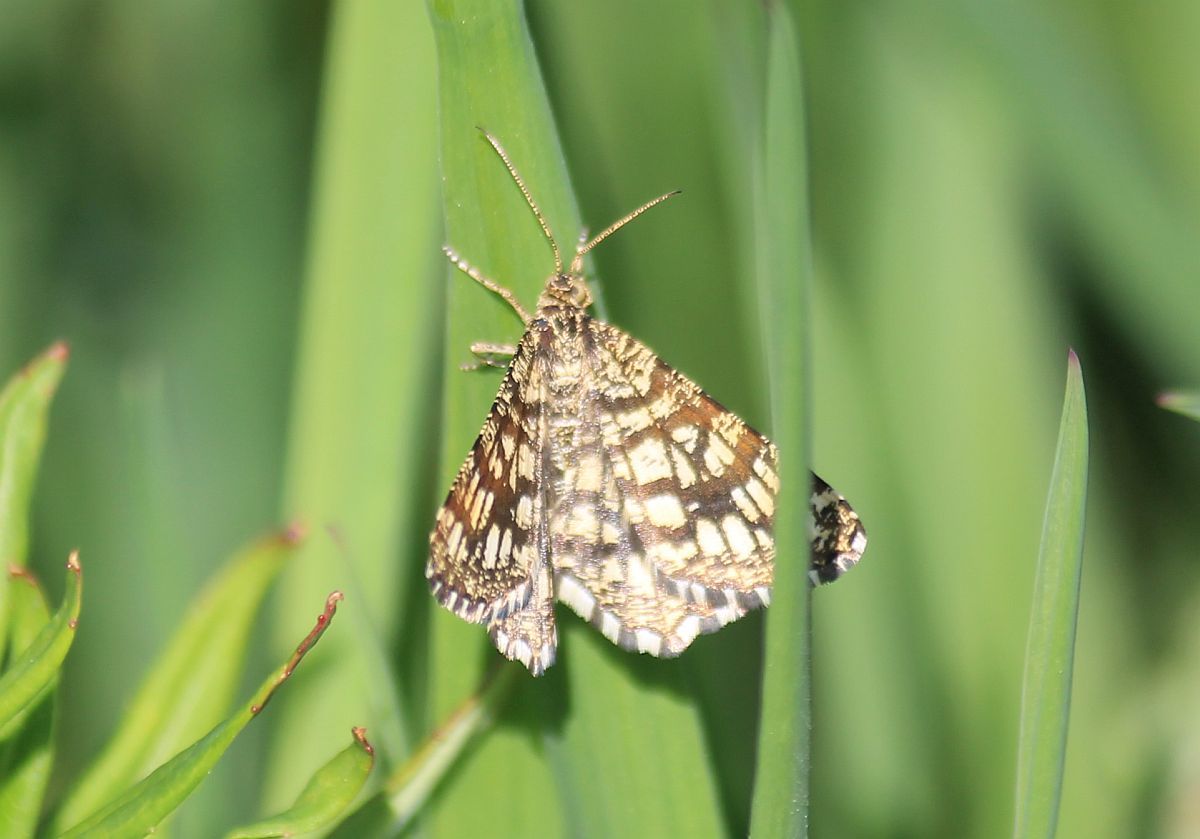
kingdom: Animalia
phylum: Arthropoda
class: Insecta
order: Lepidoptera
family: Geometridae
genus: Chiasmia
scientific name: Chiasmia clathrata
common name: Latticed heath
